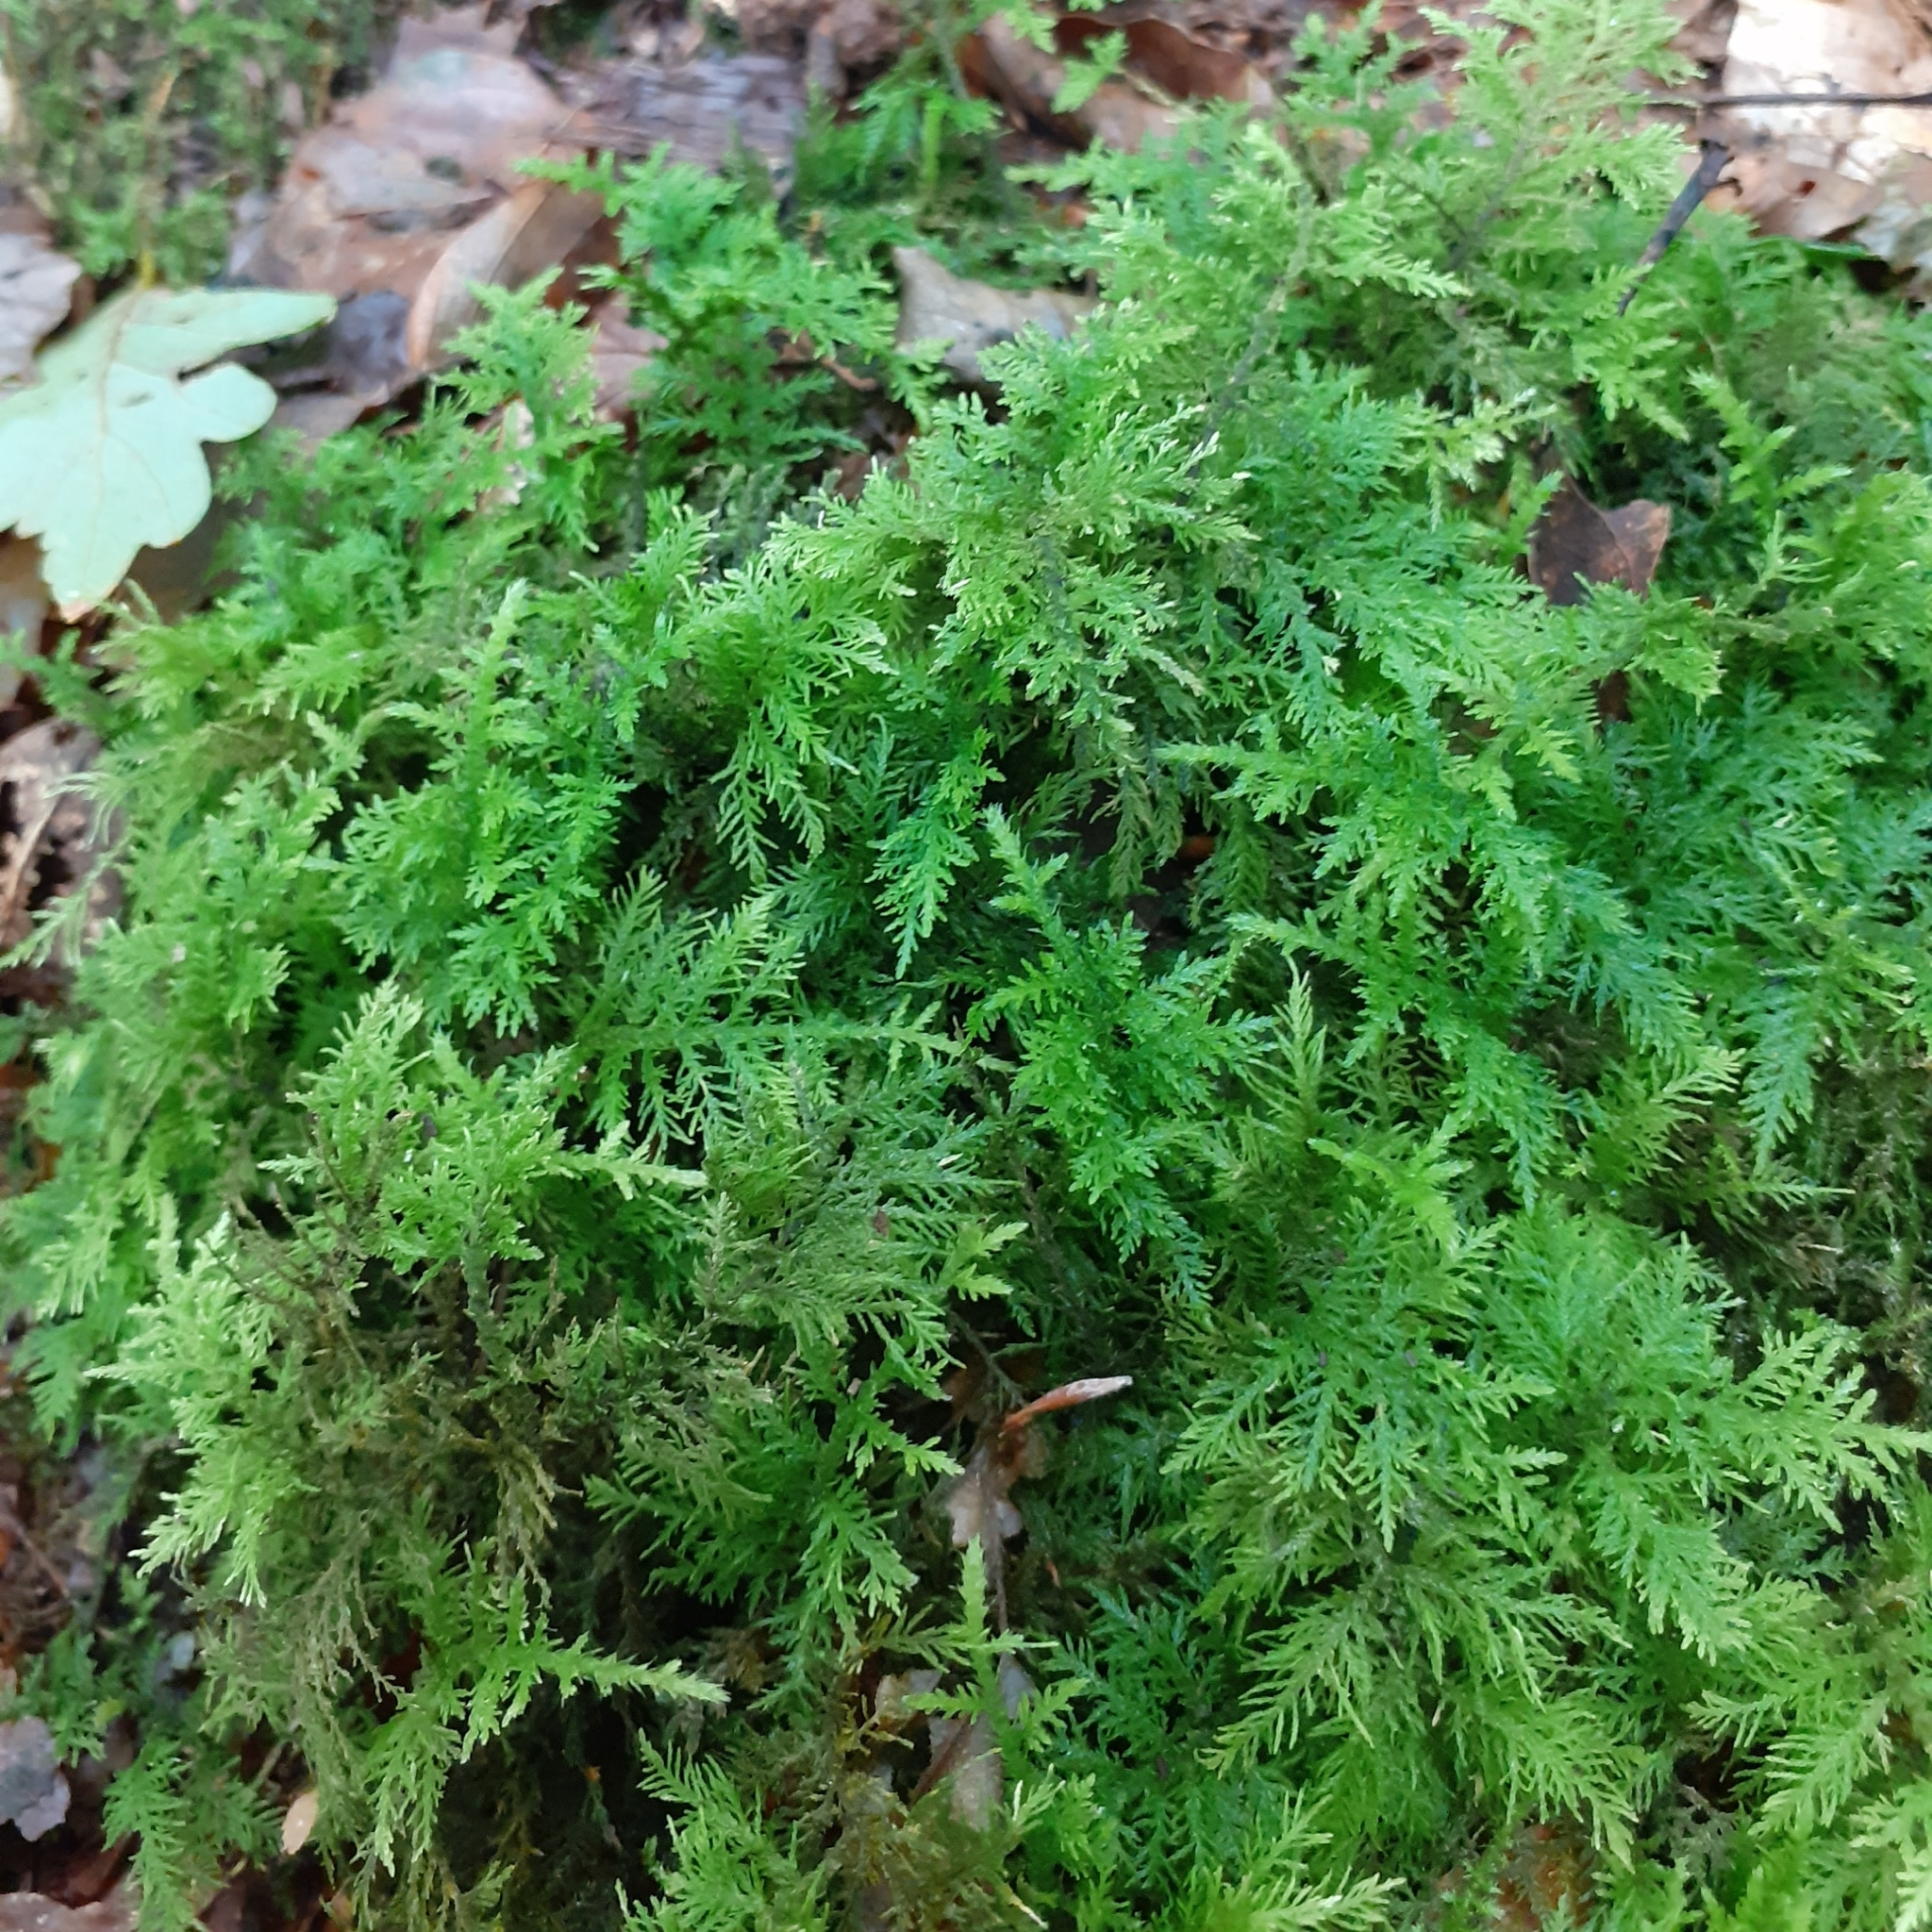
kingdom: Plantae
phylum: Bryophyta
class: Bryopsida
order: Hypnales
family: Thuidiaceae
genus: Thuidium
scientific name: Thuidium tamariscinum
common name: Common tamarisk-moss
